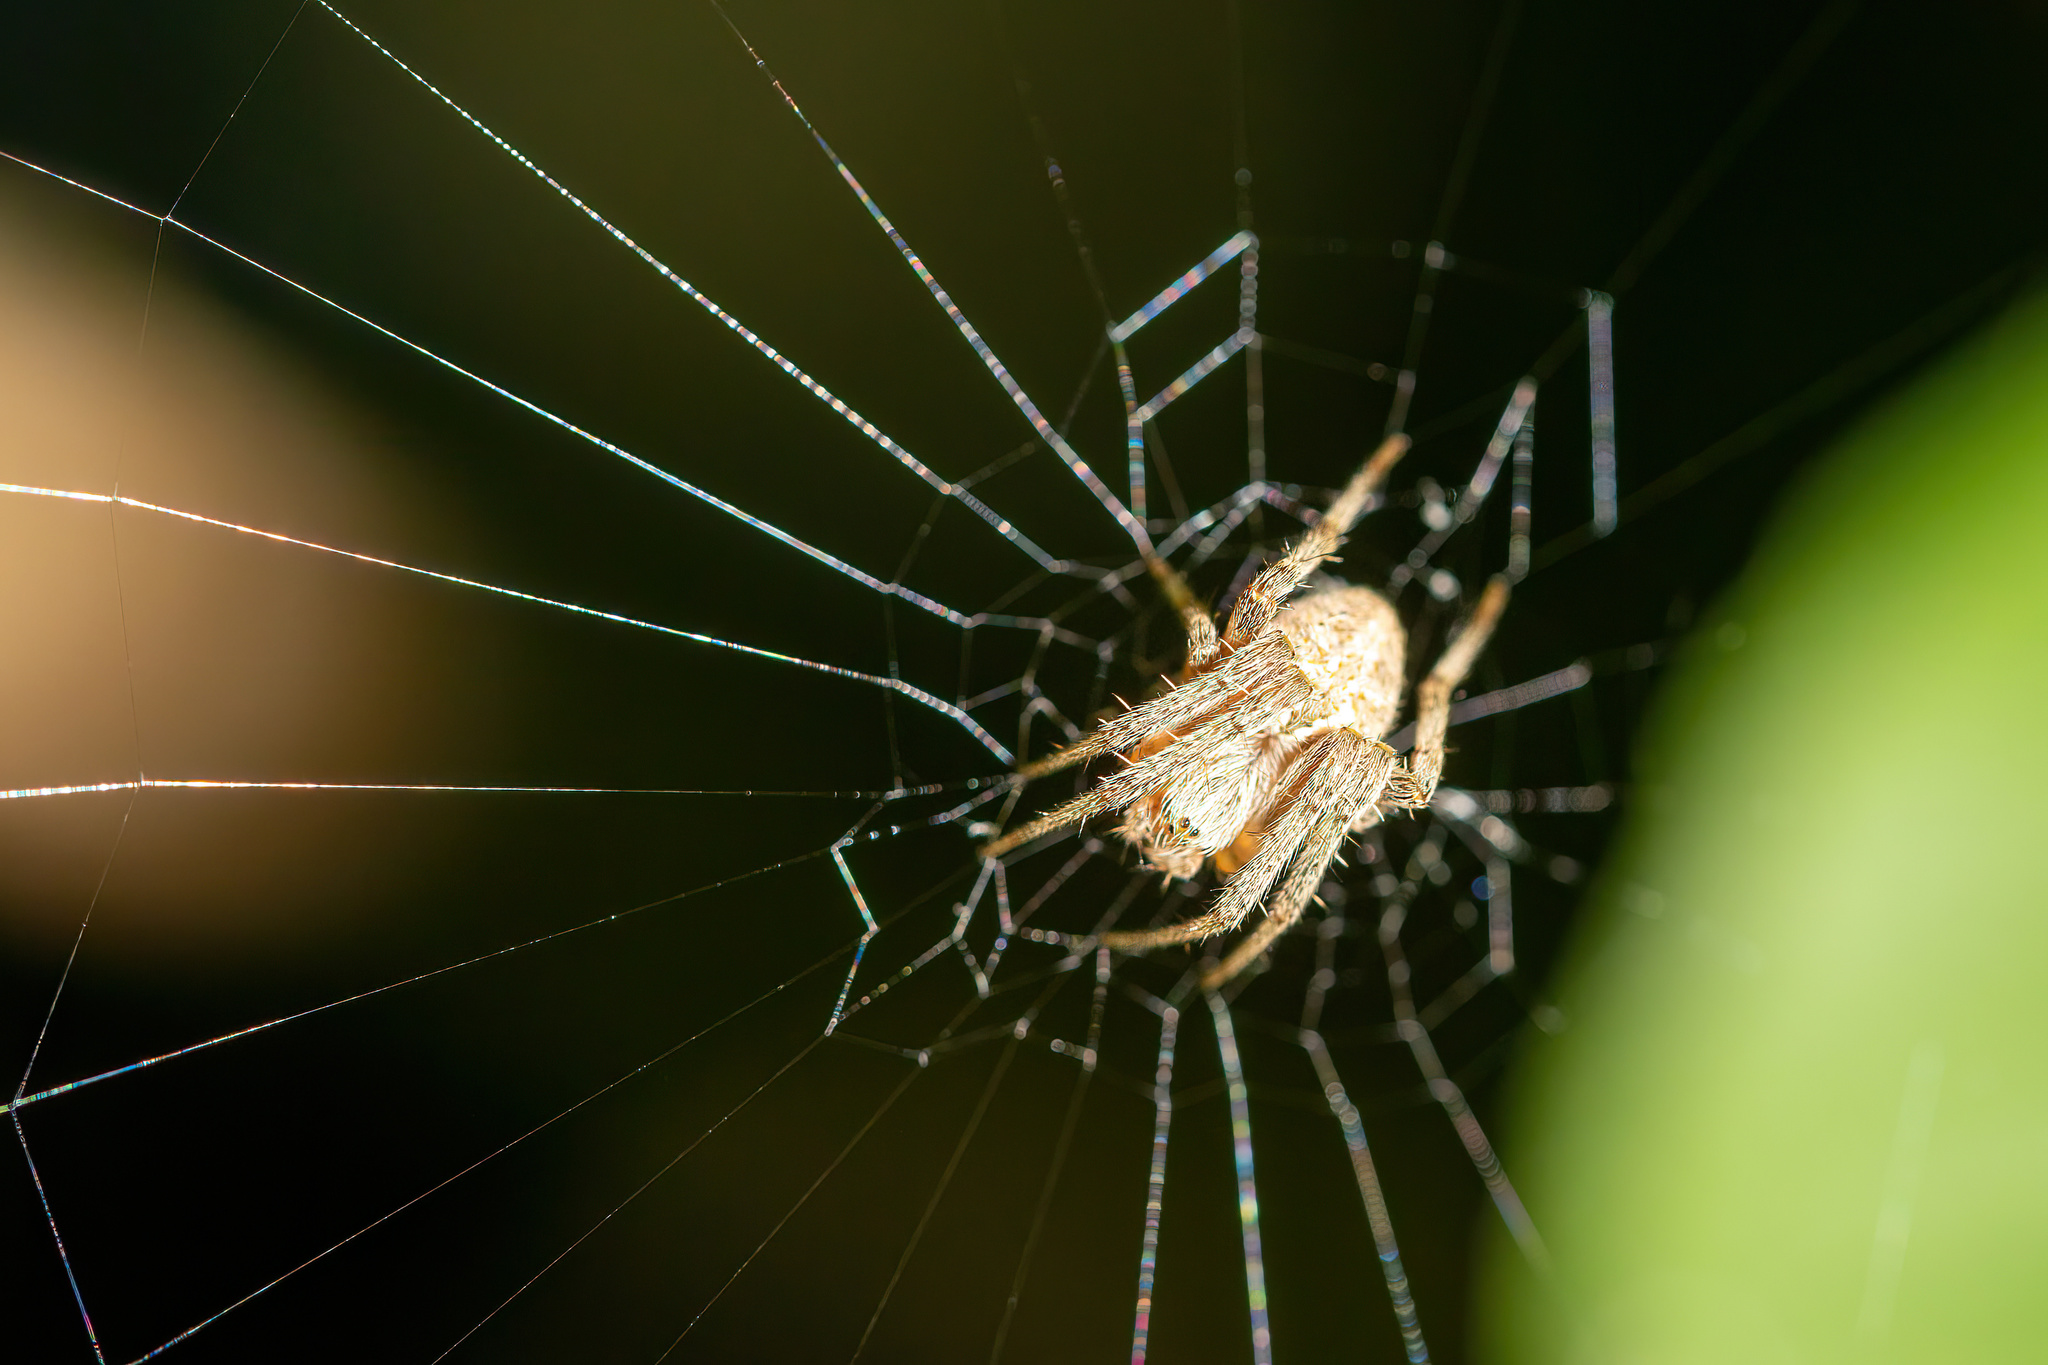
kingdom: Animalia
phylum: Arthropoda
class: Arachnida
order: Araneae
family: Araneidae
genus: Neoscona
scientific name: Neoscona arabesca
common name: Orb weavers
